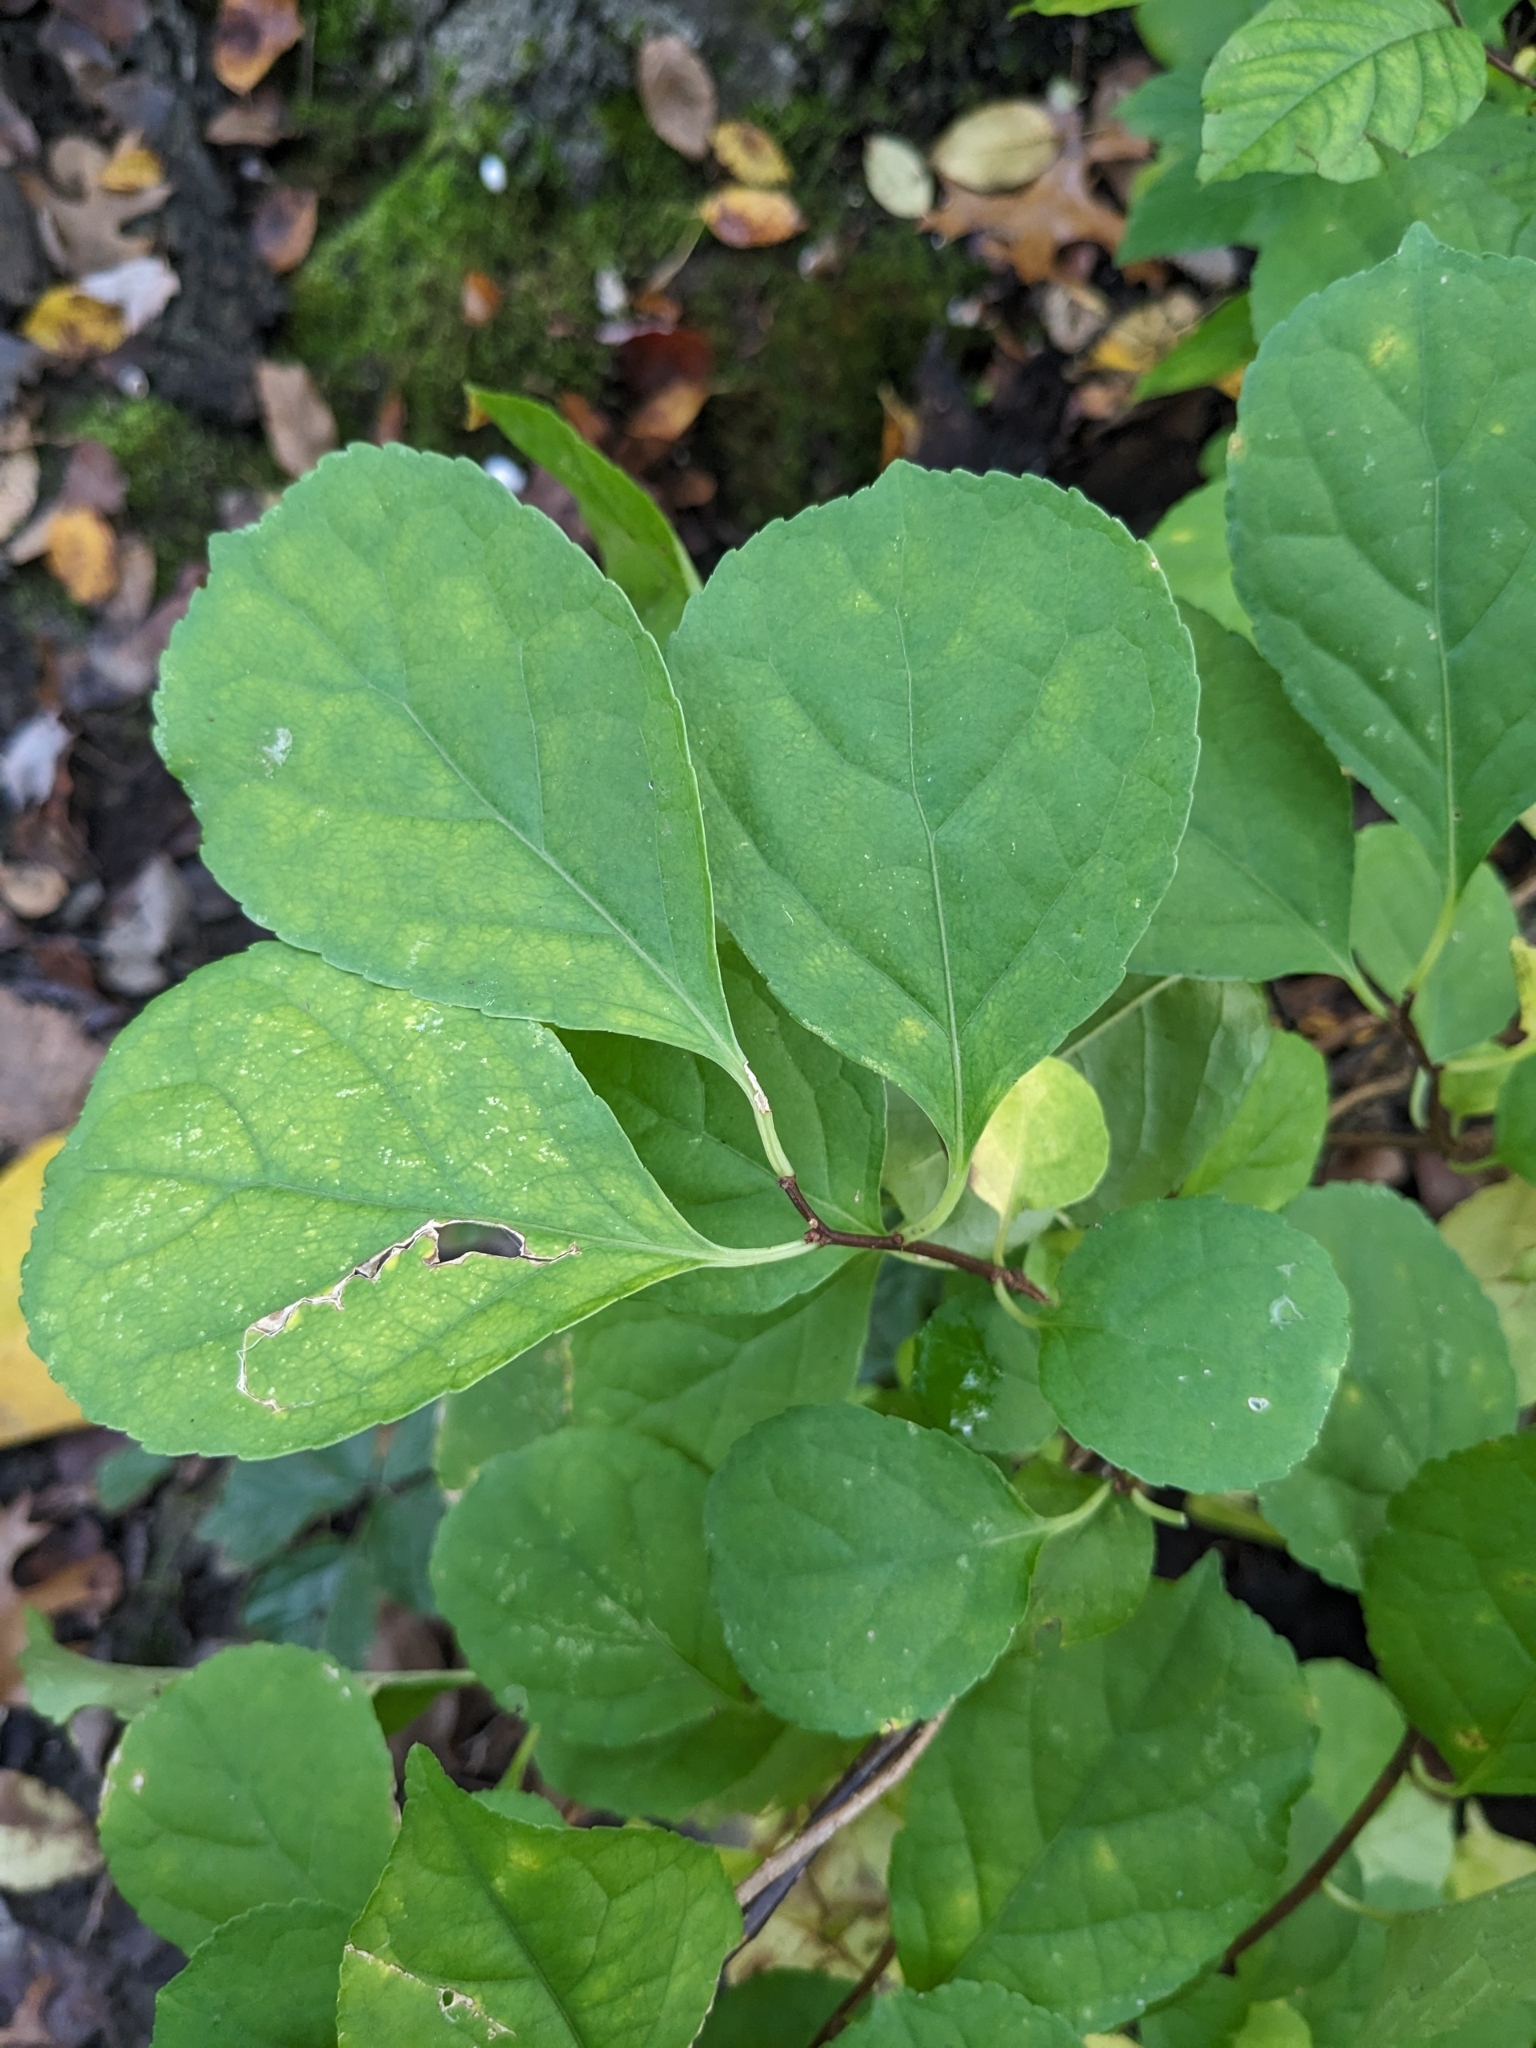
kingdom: Plantae
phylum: Tracheophyta
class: Magnoliopsida
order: Celastrales
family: Celastraceae
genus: Celastrus
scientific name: Celastrus orbiculatus
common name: Oriental bittersweet
